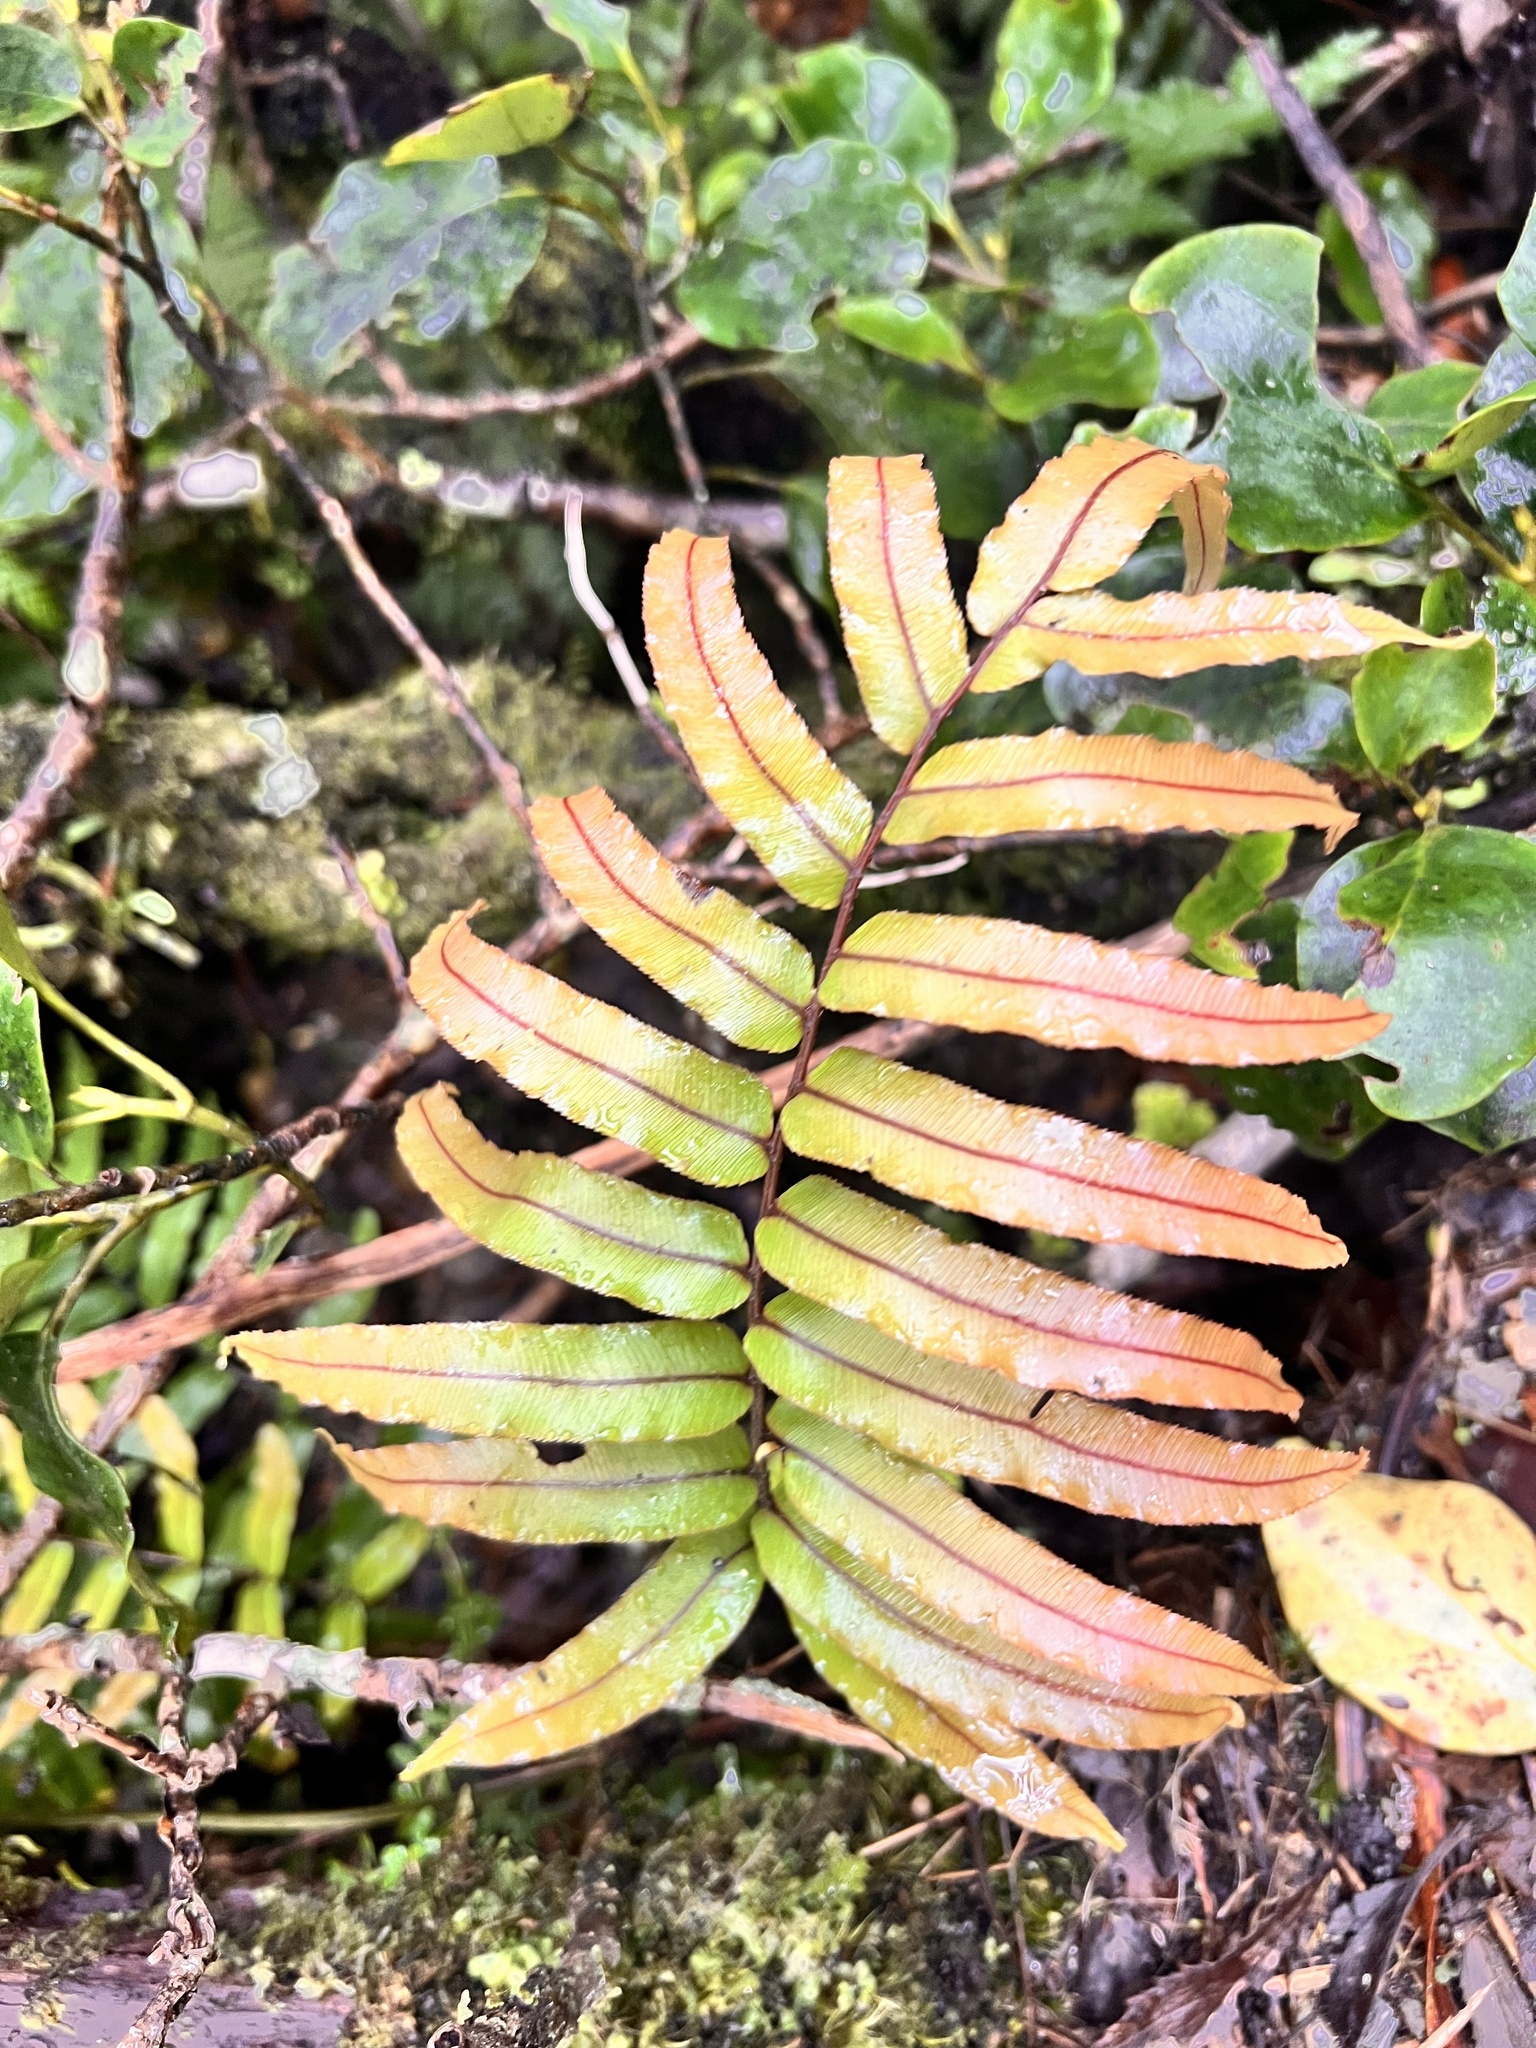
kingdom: Plantae
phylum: Tracheophyta
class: Polypodiopsida
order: Polypodiales
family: Blechnaceae
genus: Parablechnum
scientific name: Parablechnum montanum
